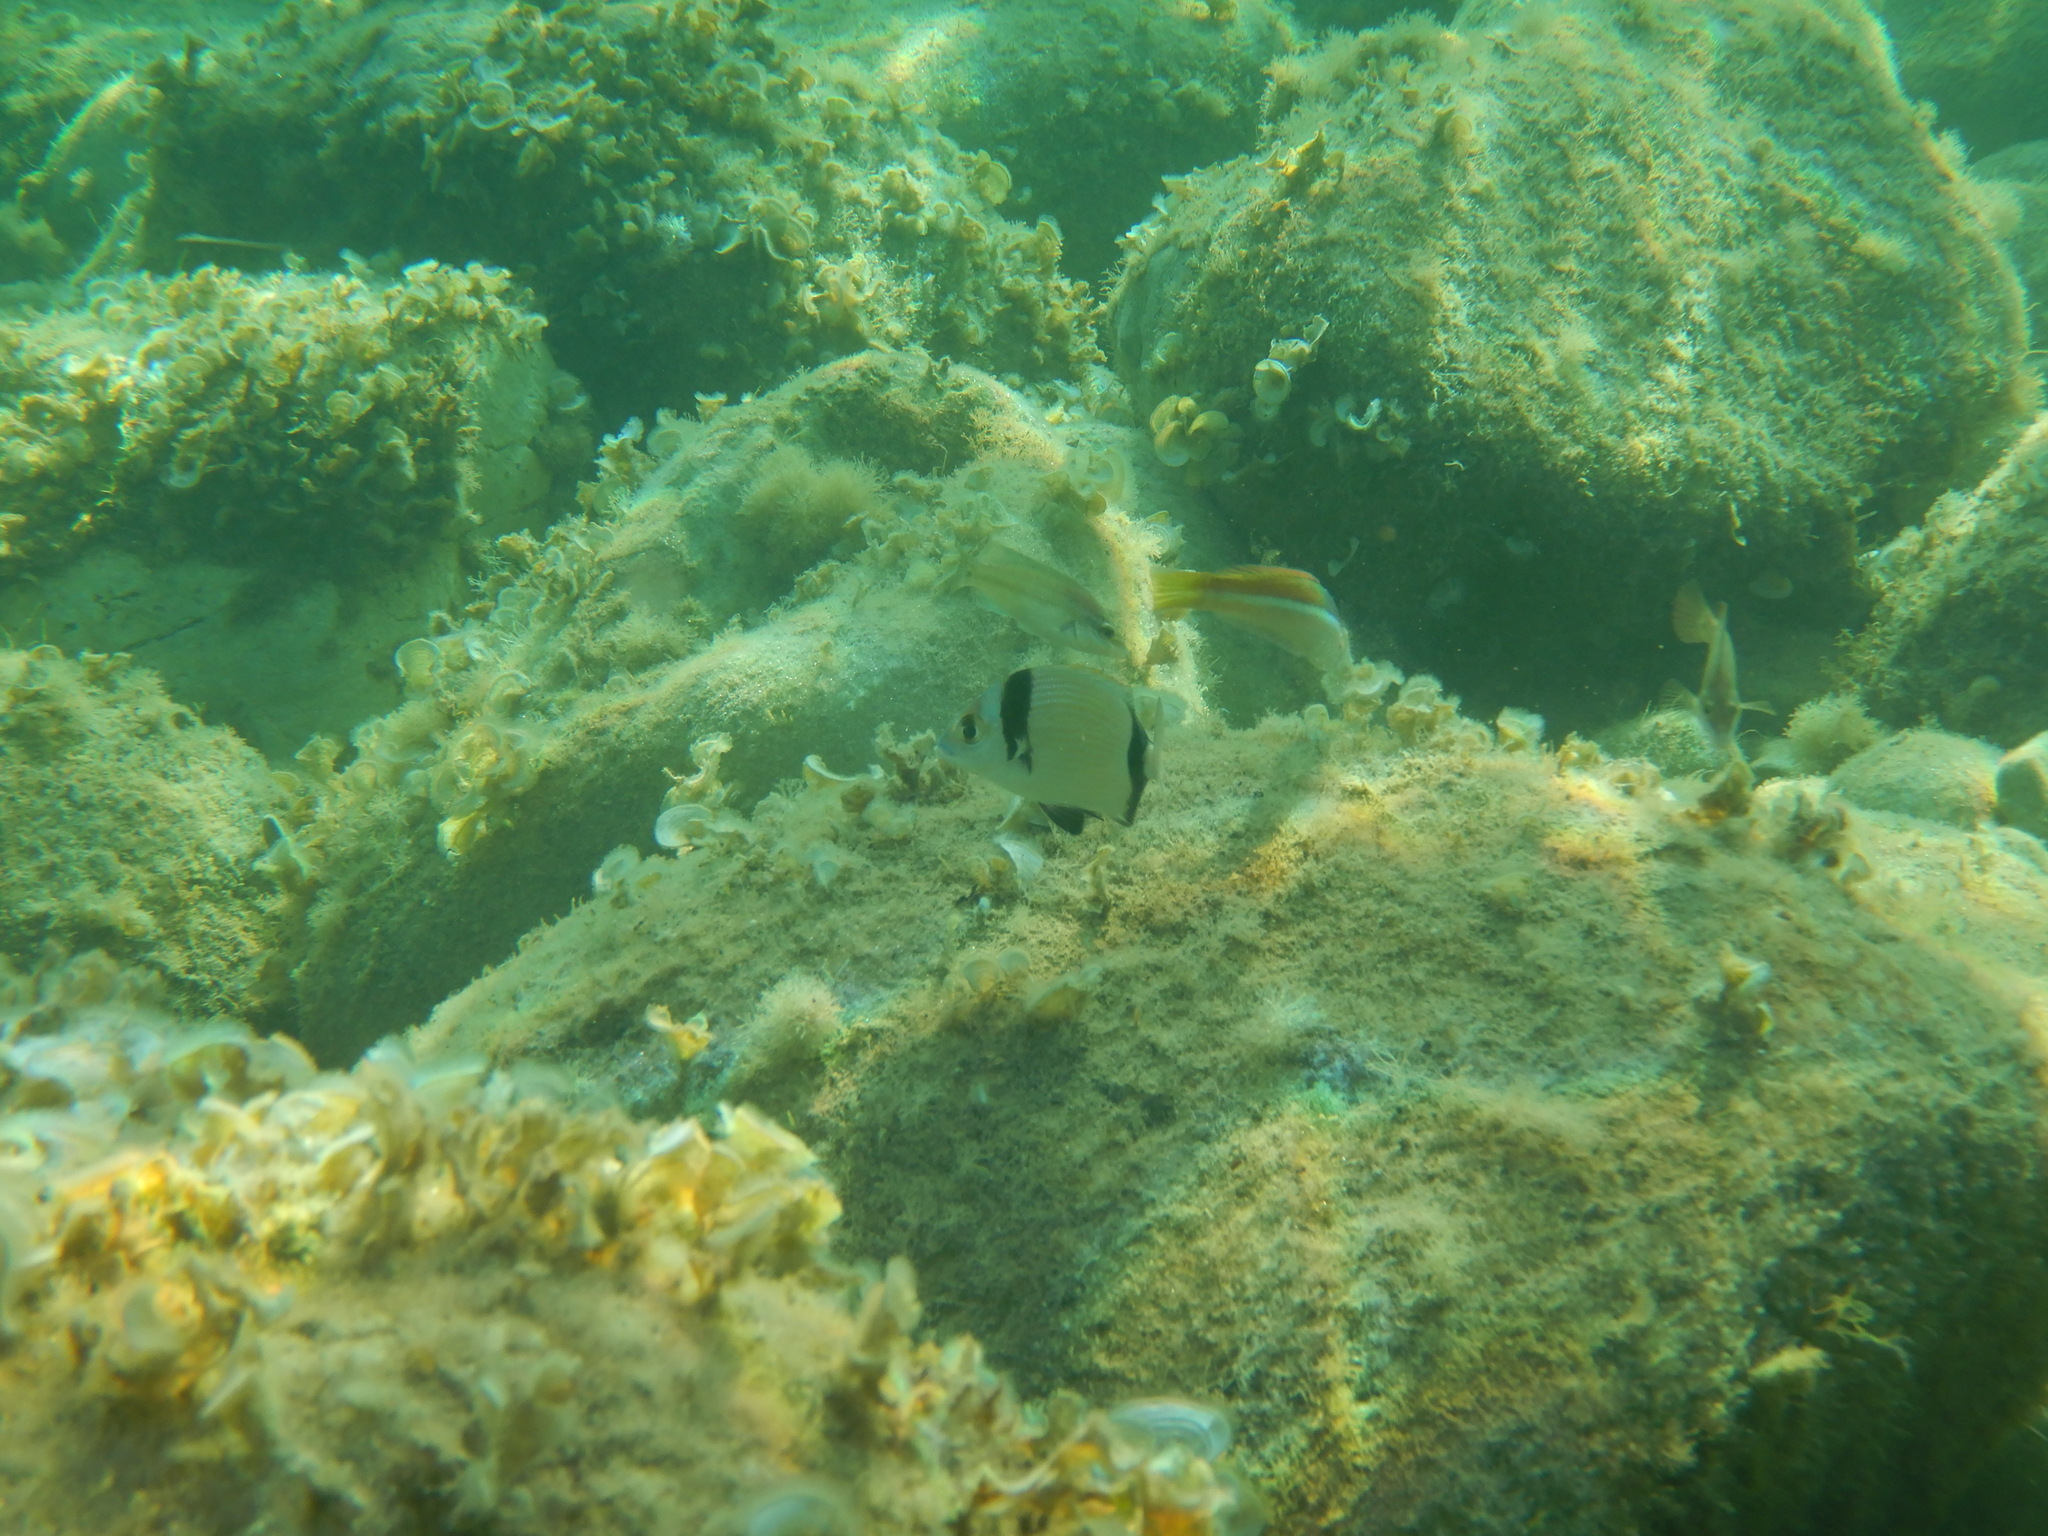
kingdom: Animalia
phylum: Chordata
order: Perciformes
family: Sparidae
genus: Diplodus
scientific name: Diplodus vulgaris
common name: Common two-banded seabream
